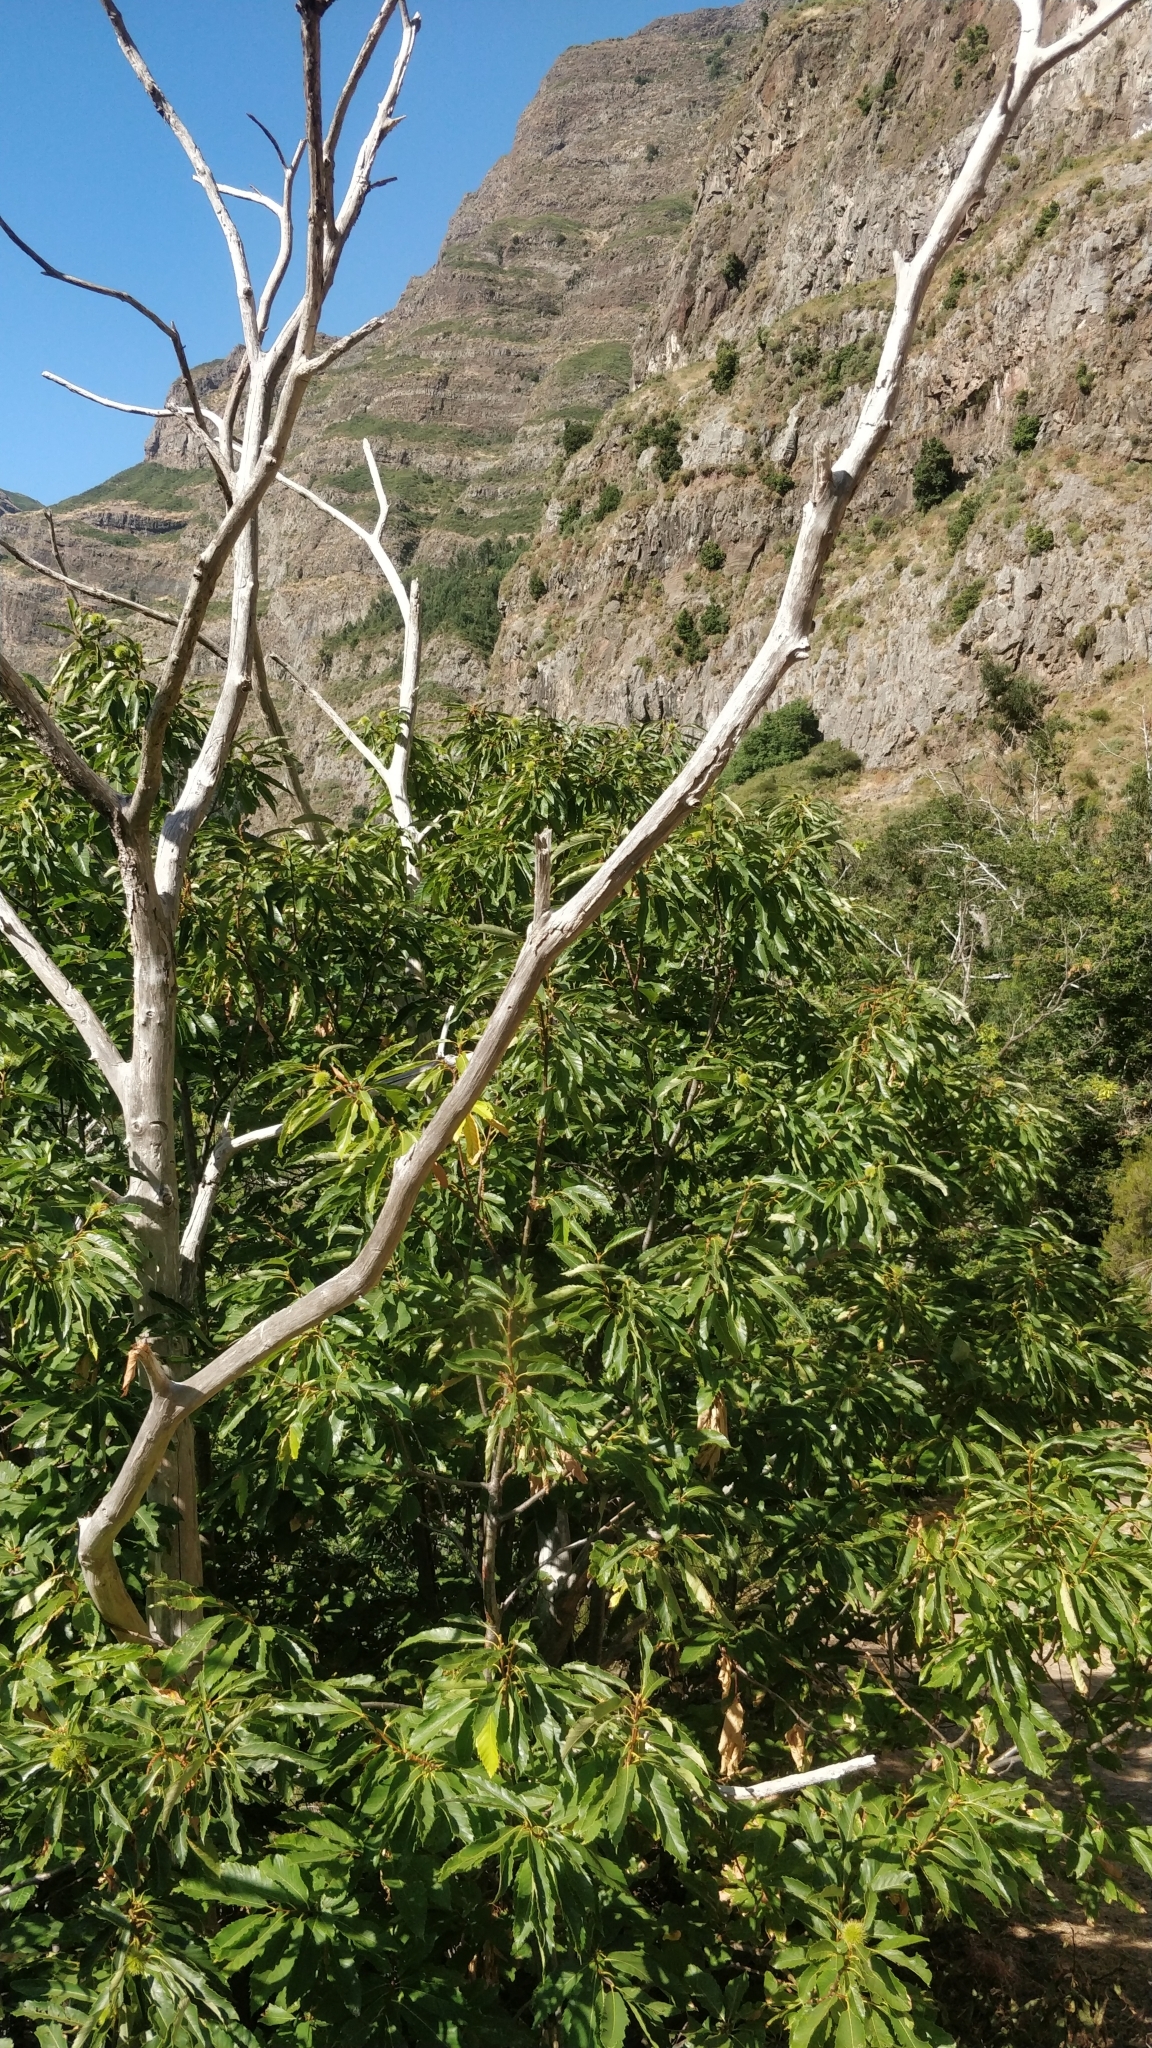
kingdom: Plantae
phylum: Tracheophyta
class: Magnoliopsida
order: Fagales
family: Fagaceae
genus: Castanea
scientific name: Castanea sativa
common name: Sweet chestnut
